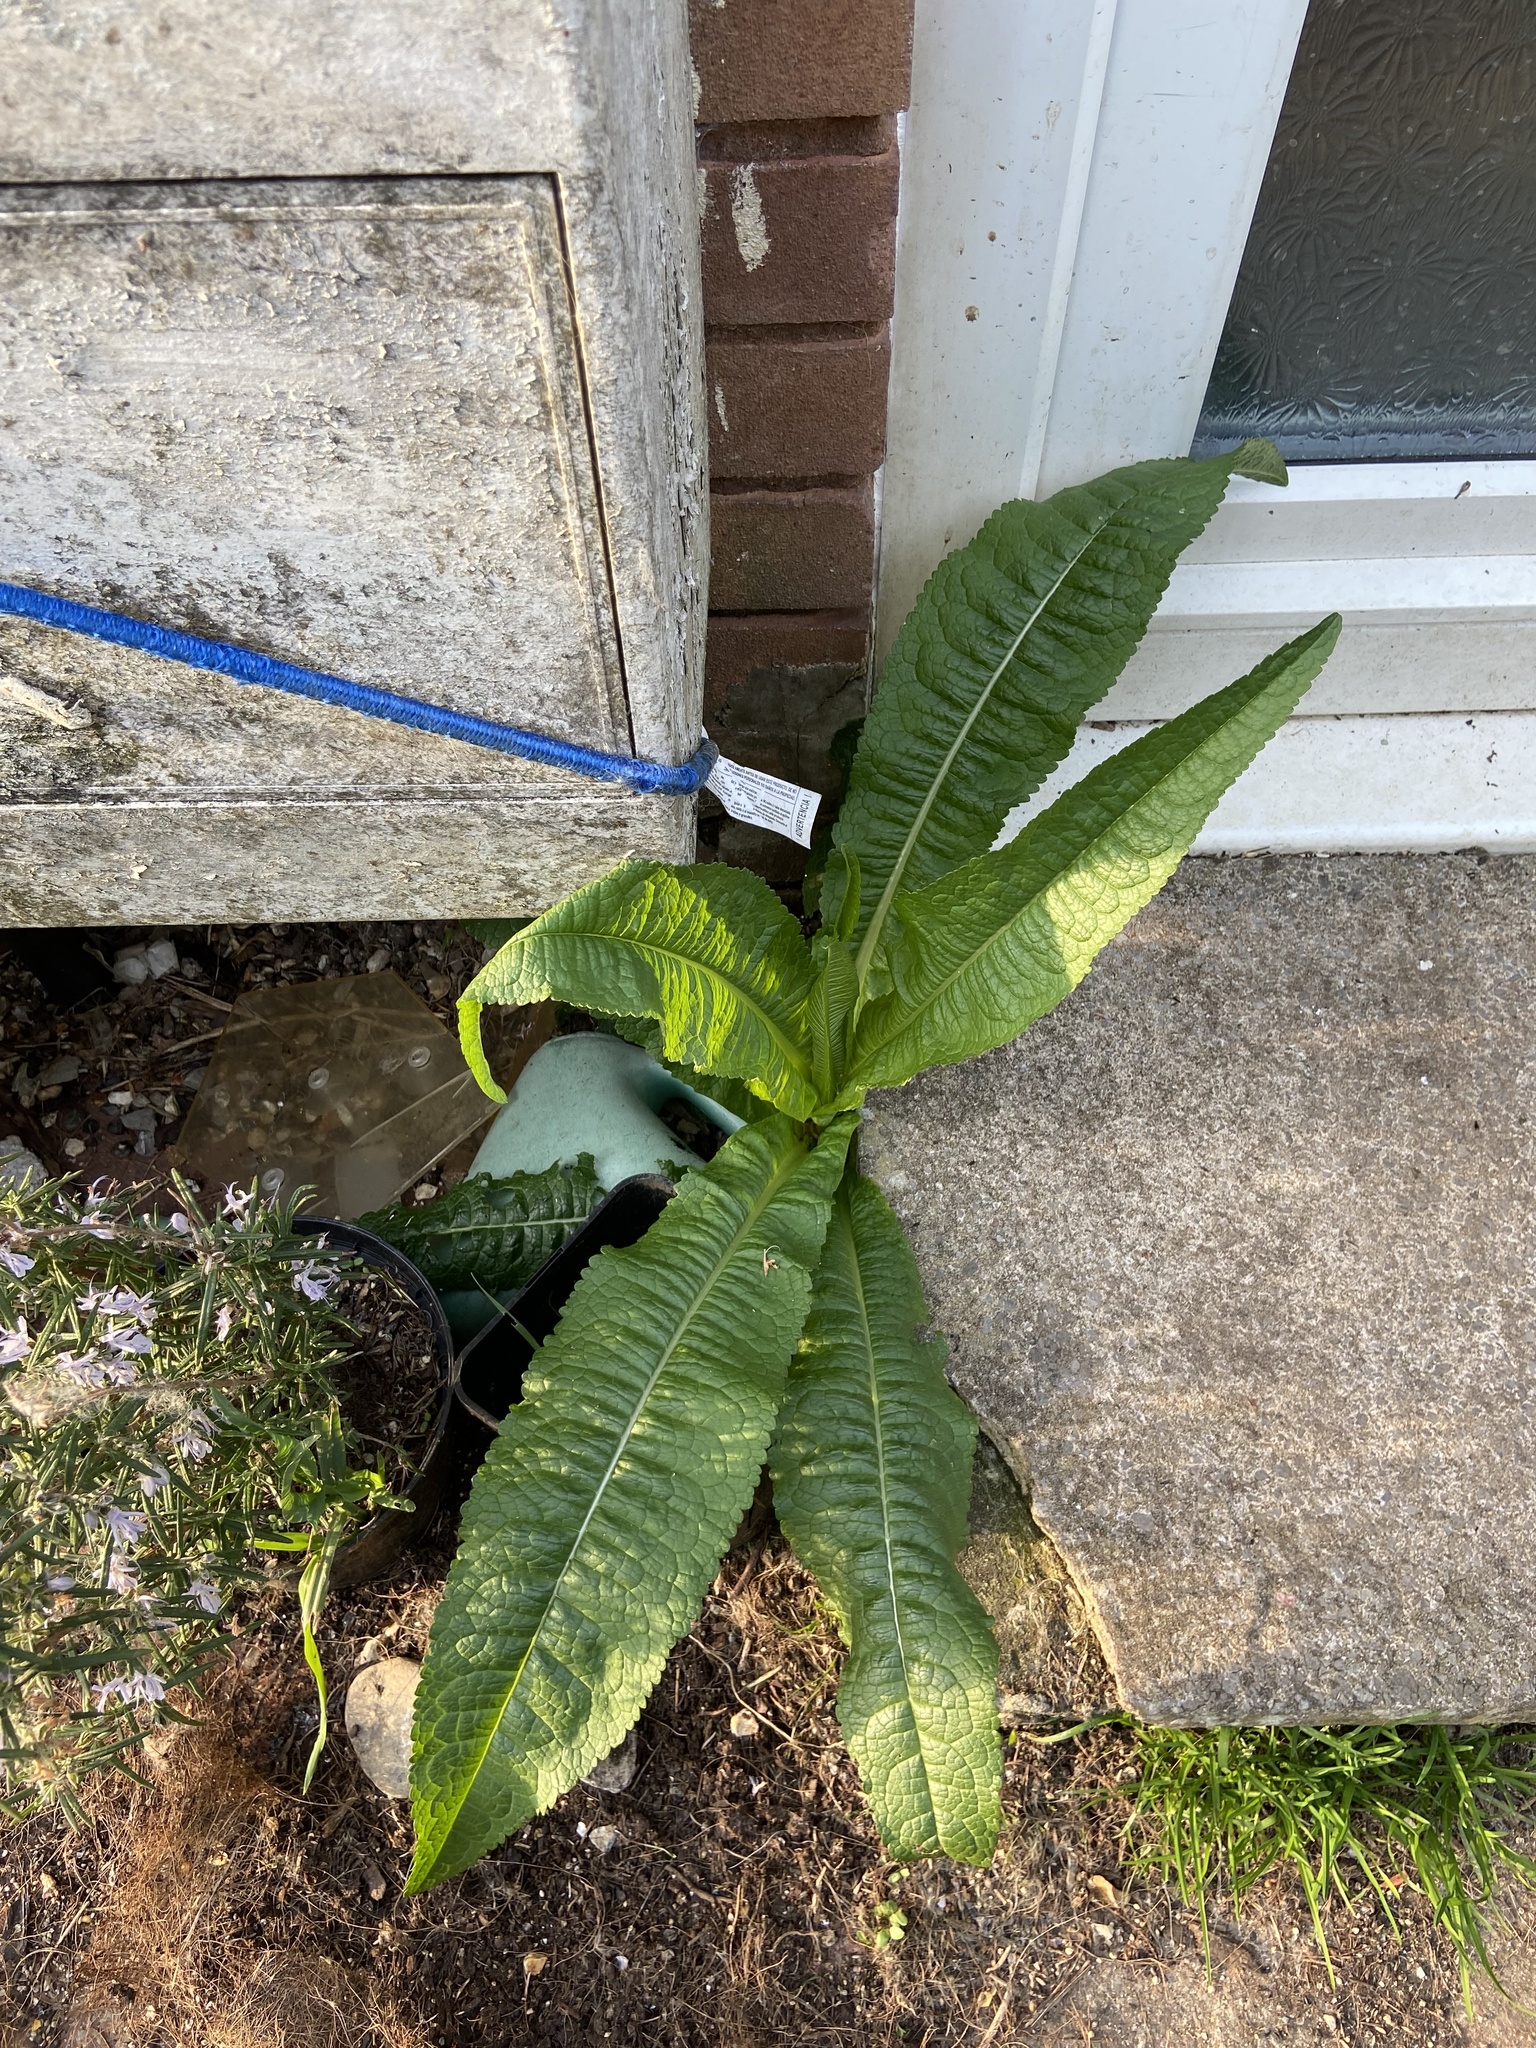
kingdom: Plantae
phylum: Tracheophyta
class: Magnoliopsida
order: Dipsacales
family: Caprifoliaceae
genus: Dipsacus
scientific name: Dipsacus fullonum
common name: Teasel
